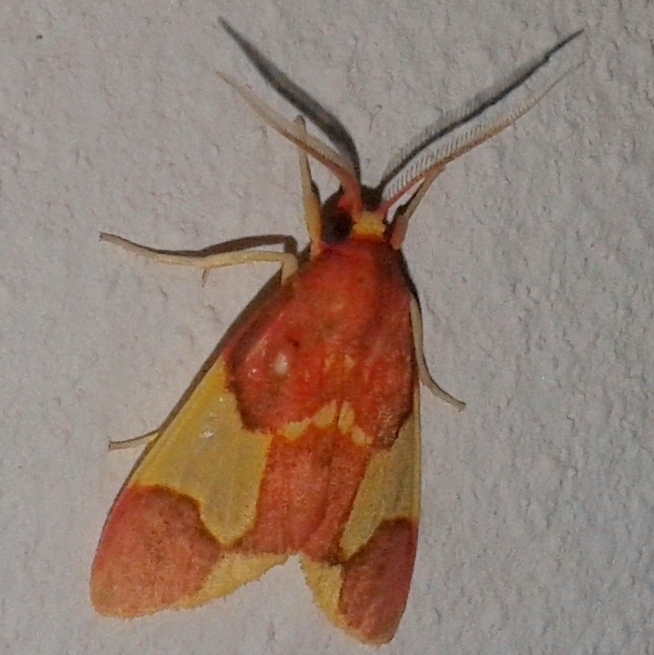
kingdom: Animalia
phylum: Arthropoda
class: Insecta
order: Lepidoptera
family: Erebidae
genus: Trichromia
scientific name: Trichromia
